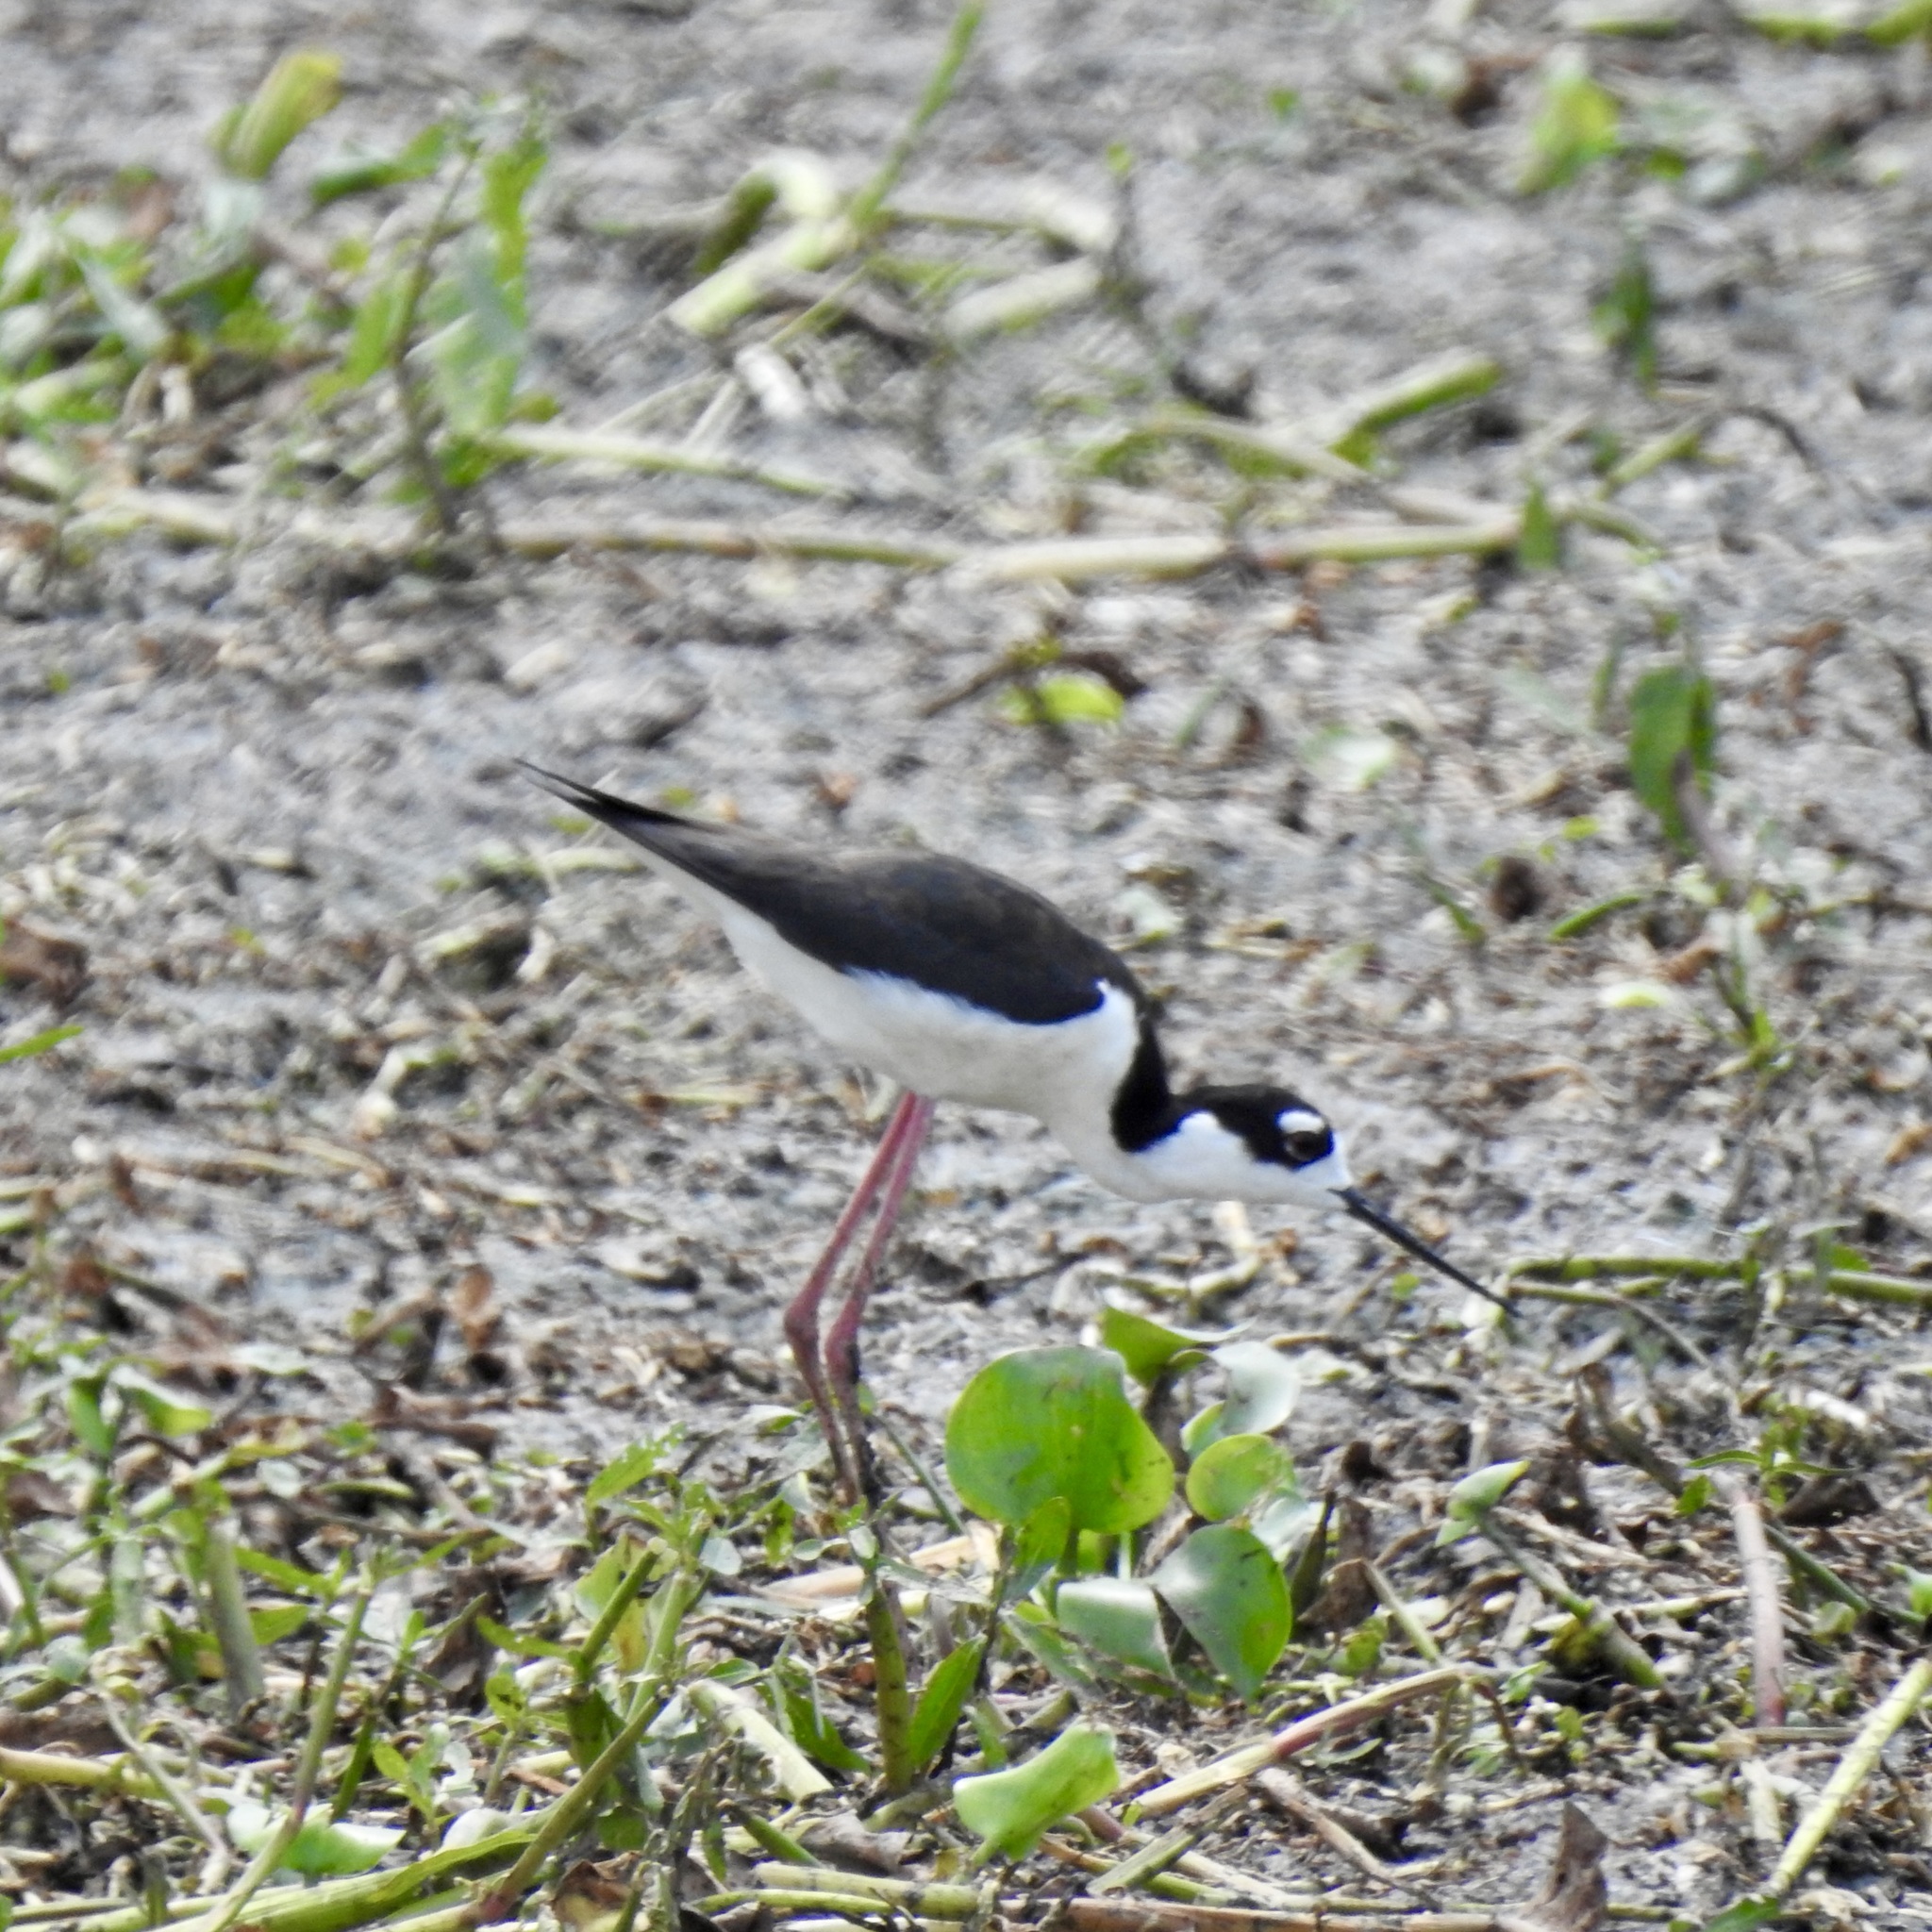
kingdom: Animalia
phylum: Chordata
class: Aves
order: Charadriiformes
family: Recurvirostridae
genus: Himantopus
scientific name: Himantopus mexicanus
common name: Black-necked stilt
